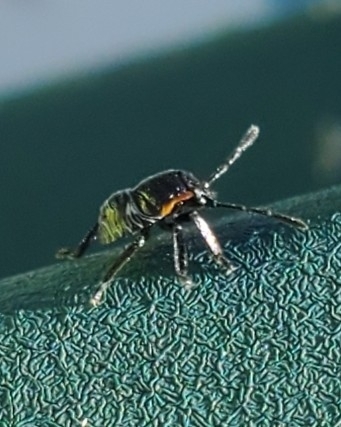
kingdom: Animalia
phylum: Arthropoda
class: Insecta
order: Hemiptera
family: Pentatomidae
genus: Chinavia
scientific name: Chinavia hilaris
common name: Green stink bug
